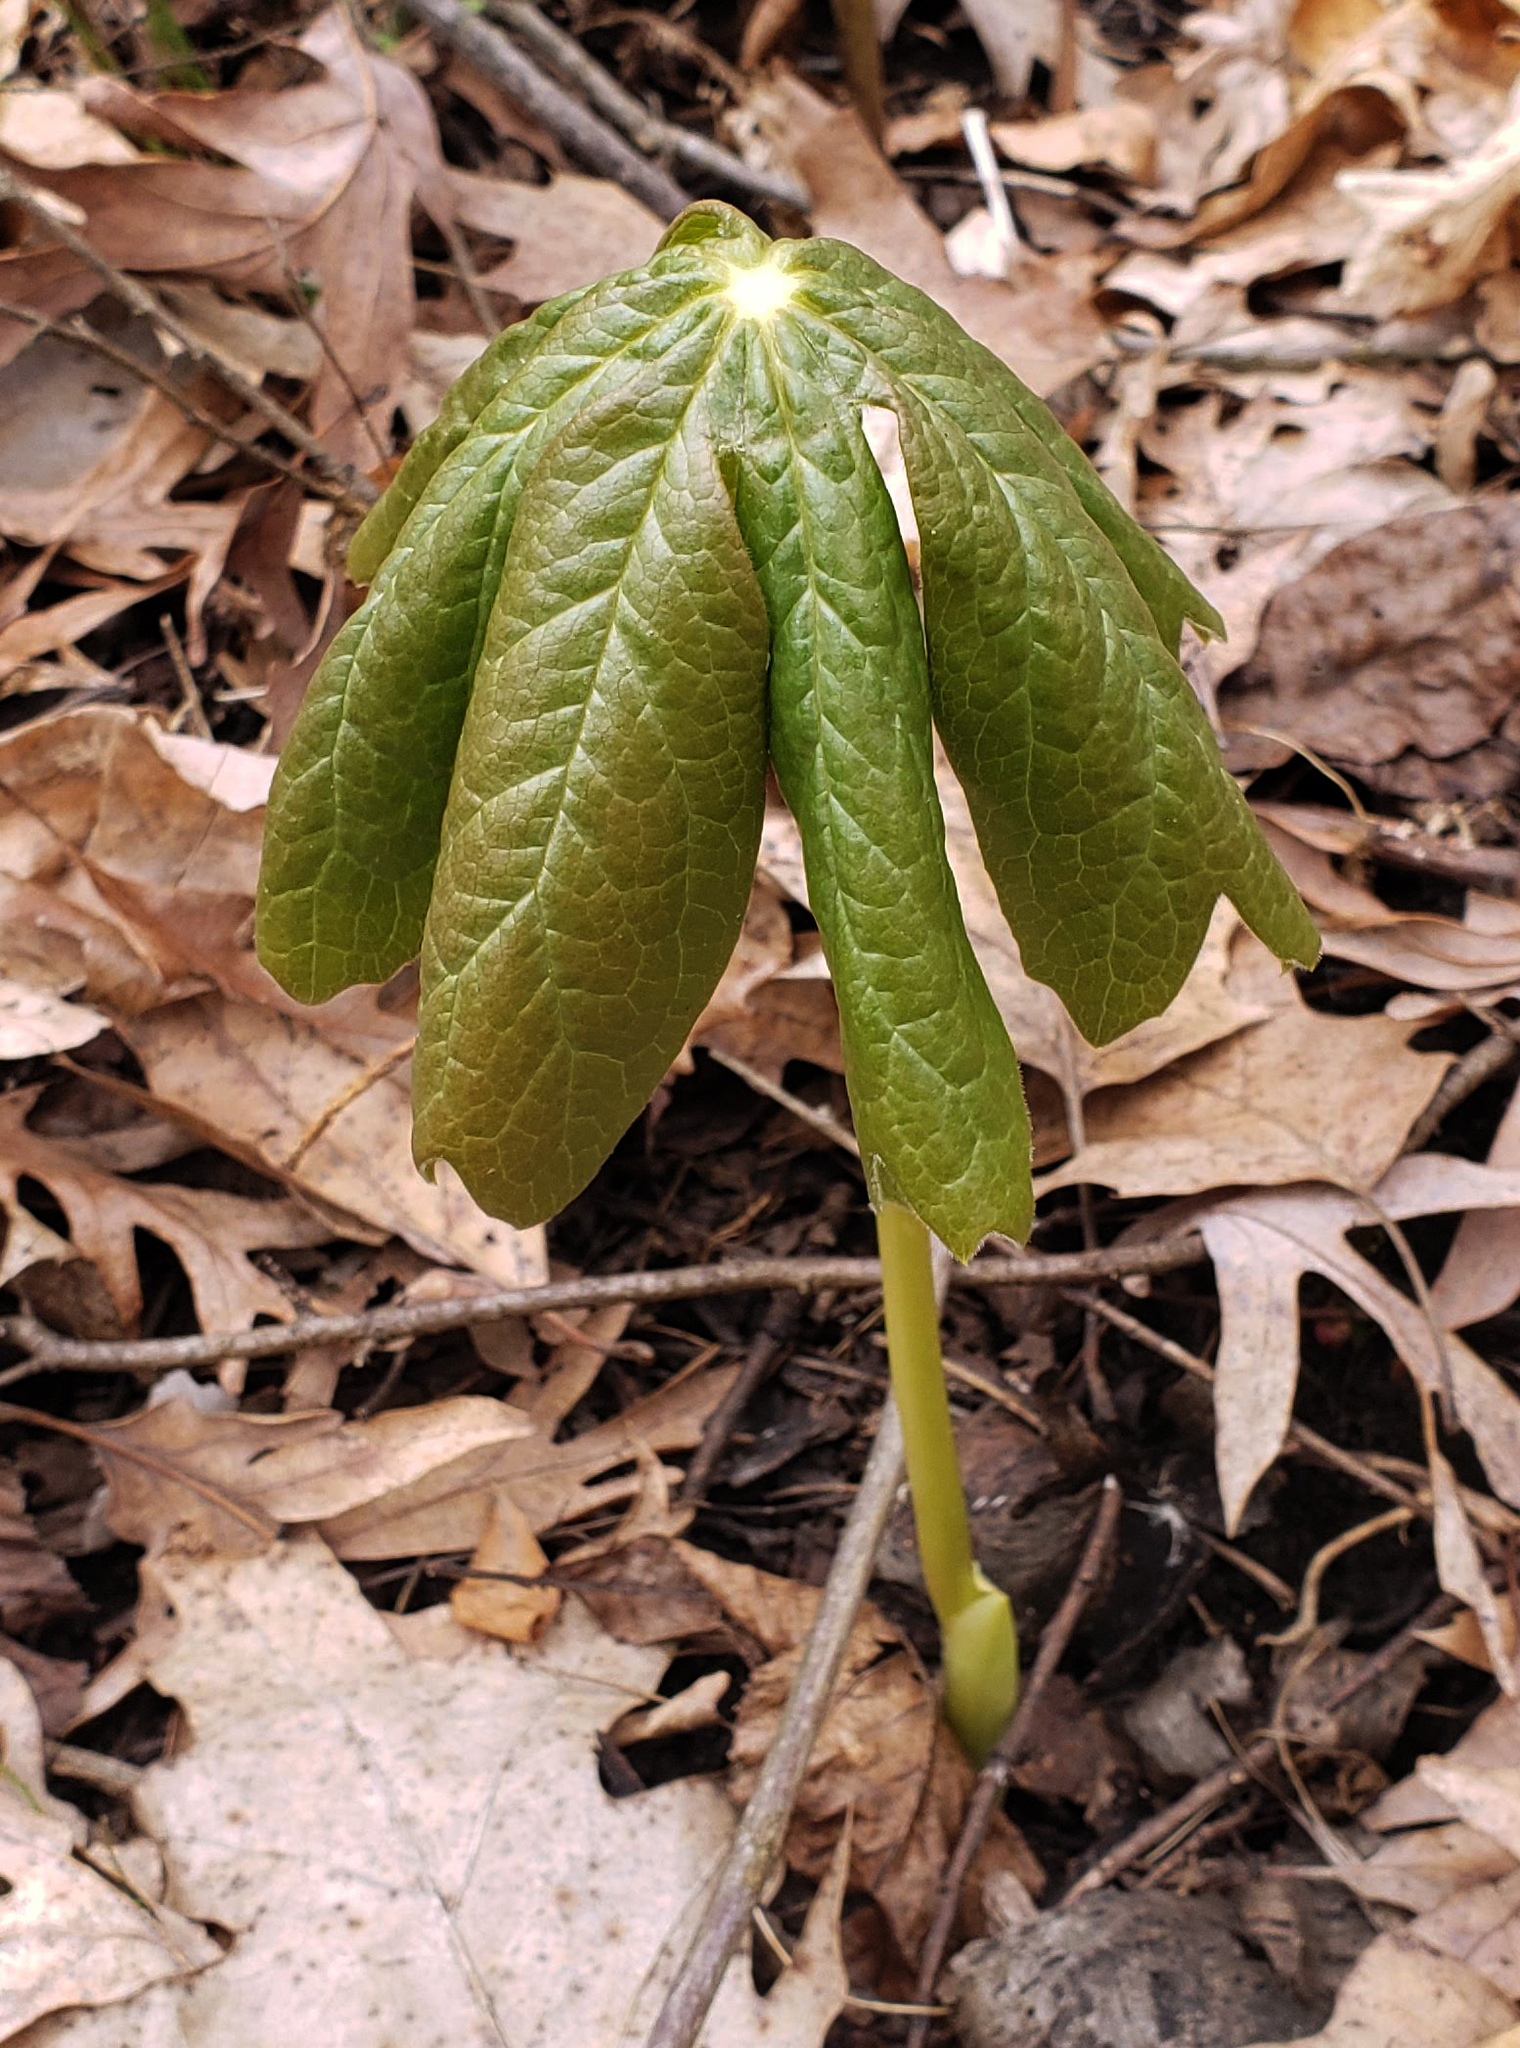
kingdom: Plantae
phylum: Tracheophyta
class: Magnoliopsida
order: Ranunculales
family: Berberidaceae
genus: Podophyllum
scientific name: Podophyllum peltatum
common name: Wild mandrake
